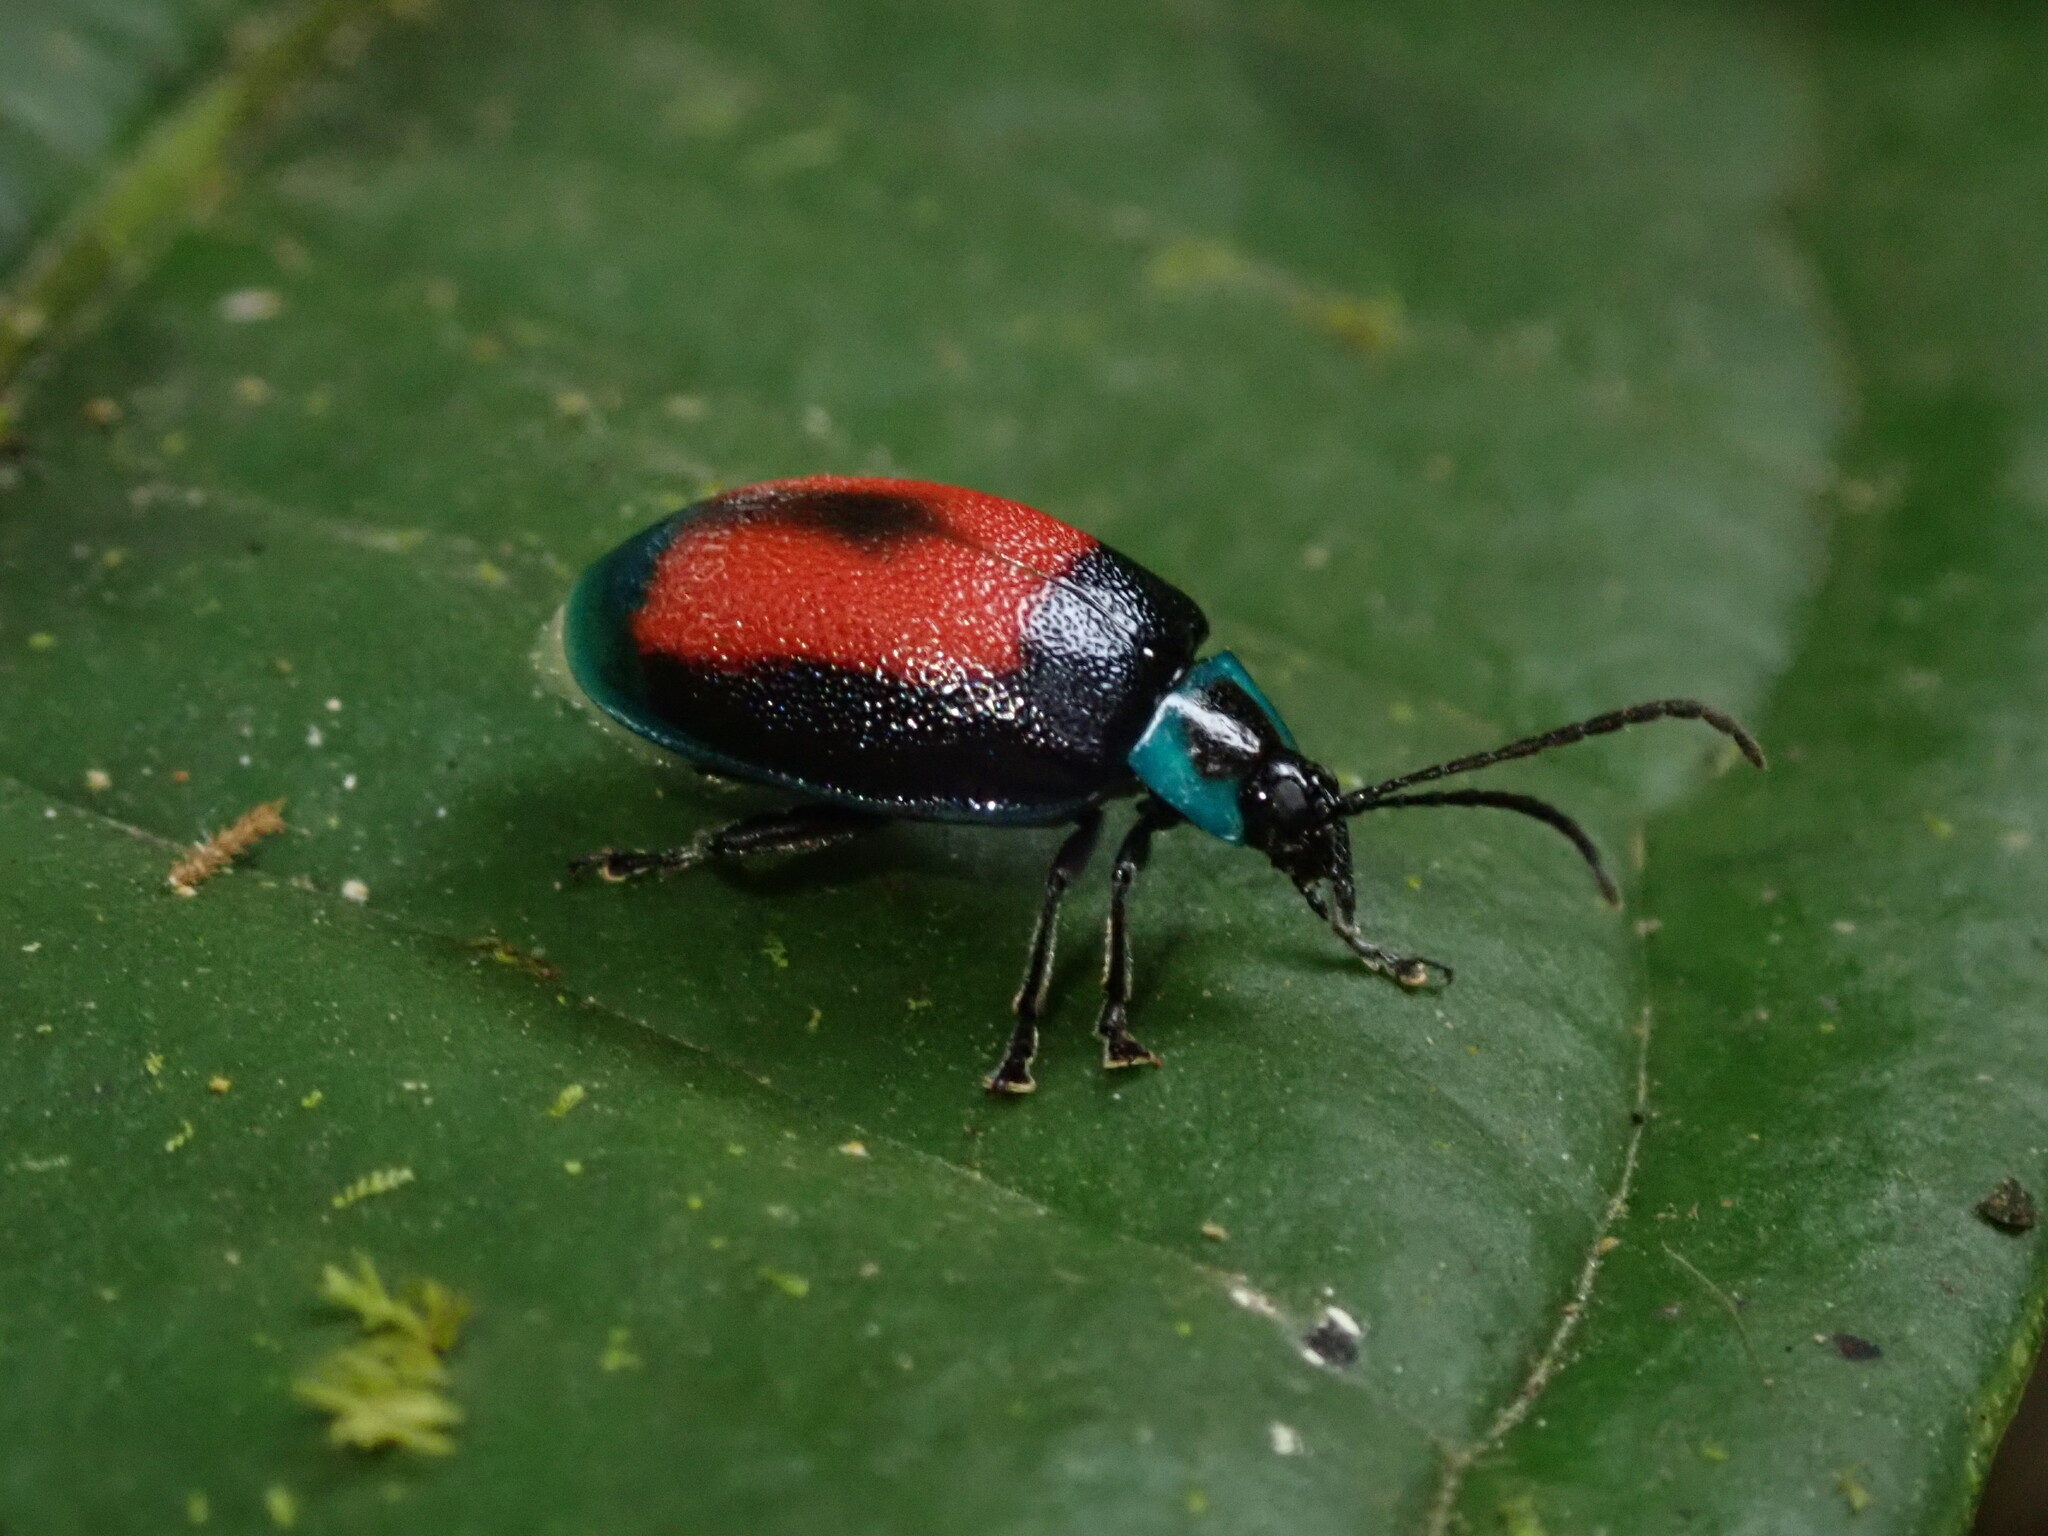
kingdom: Animalia
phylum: Arthropoda
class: Insecta
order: Coleoptera
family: Chrysomelidae
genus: Aspicela
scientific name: Aspicela
